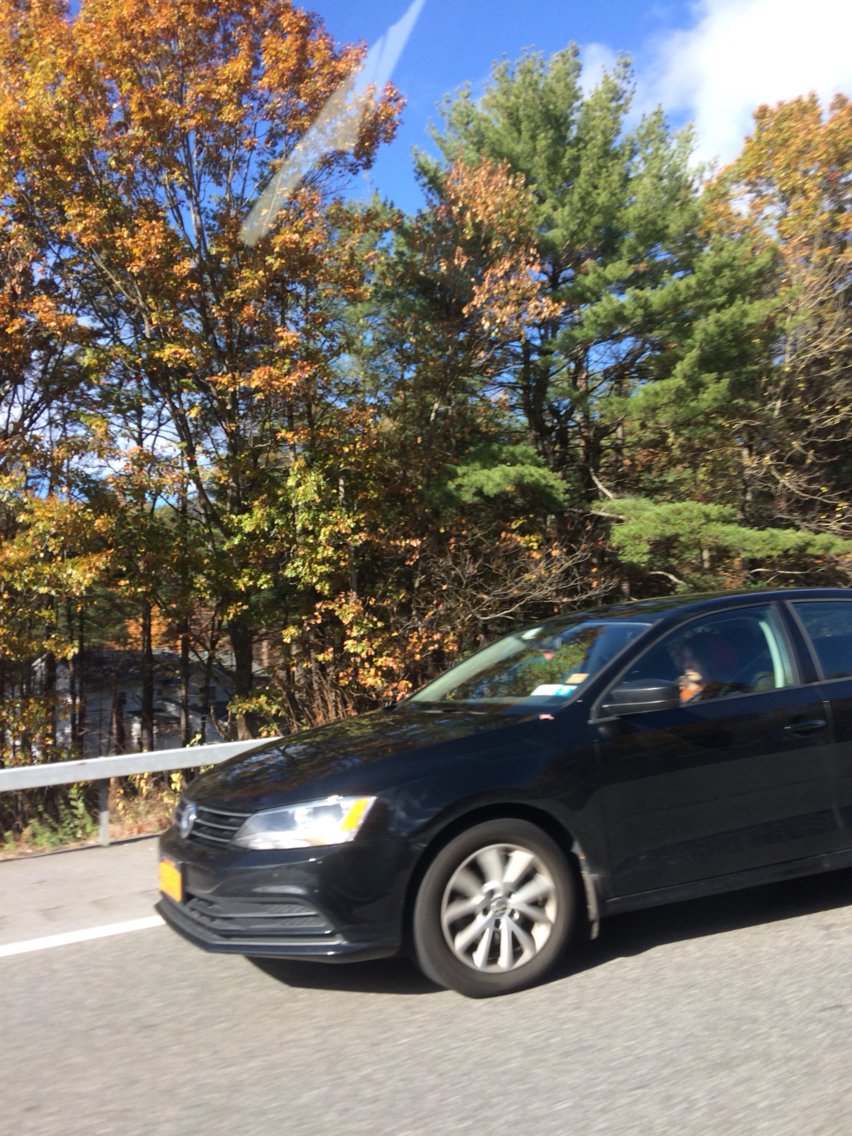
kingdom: Plantae
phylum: Tracheophyta
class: Pinopsida
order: Pinales
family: Pinaceae
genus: Pinus
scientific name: Pinus strobus
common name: Weymouth pine
